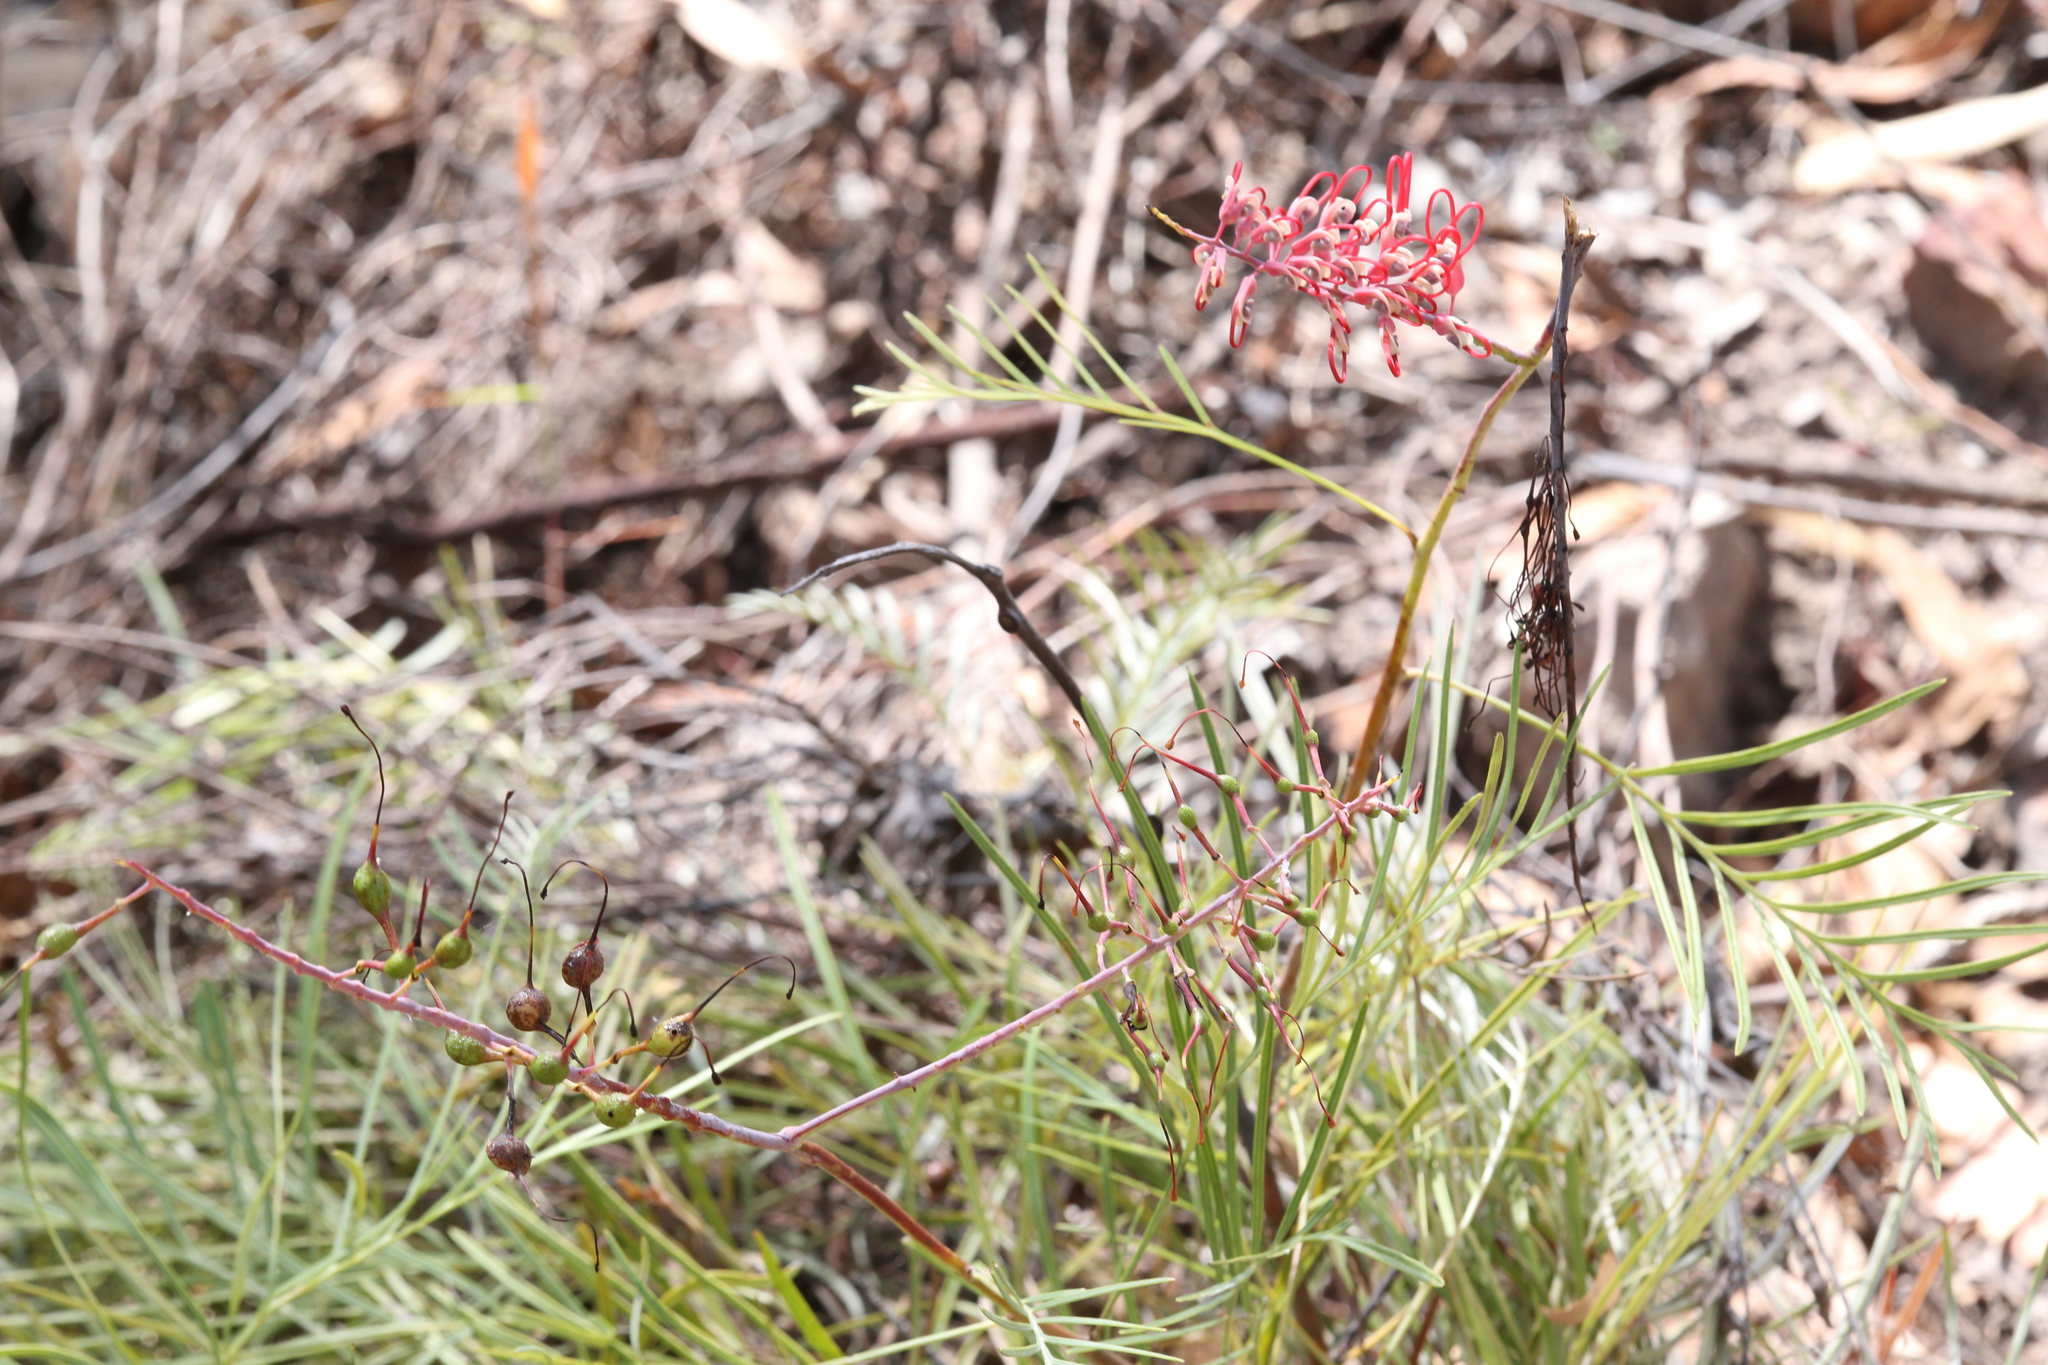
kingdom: Plantae
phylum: Tracheophyta
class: Magnoliopsida
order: Proteales
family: Proteaceae
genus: Grevillea
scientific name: Grevillea dryandri
